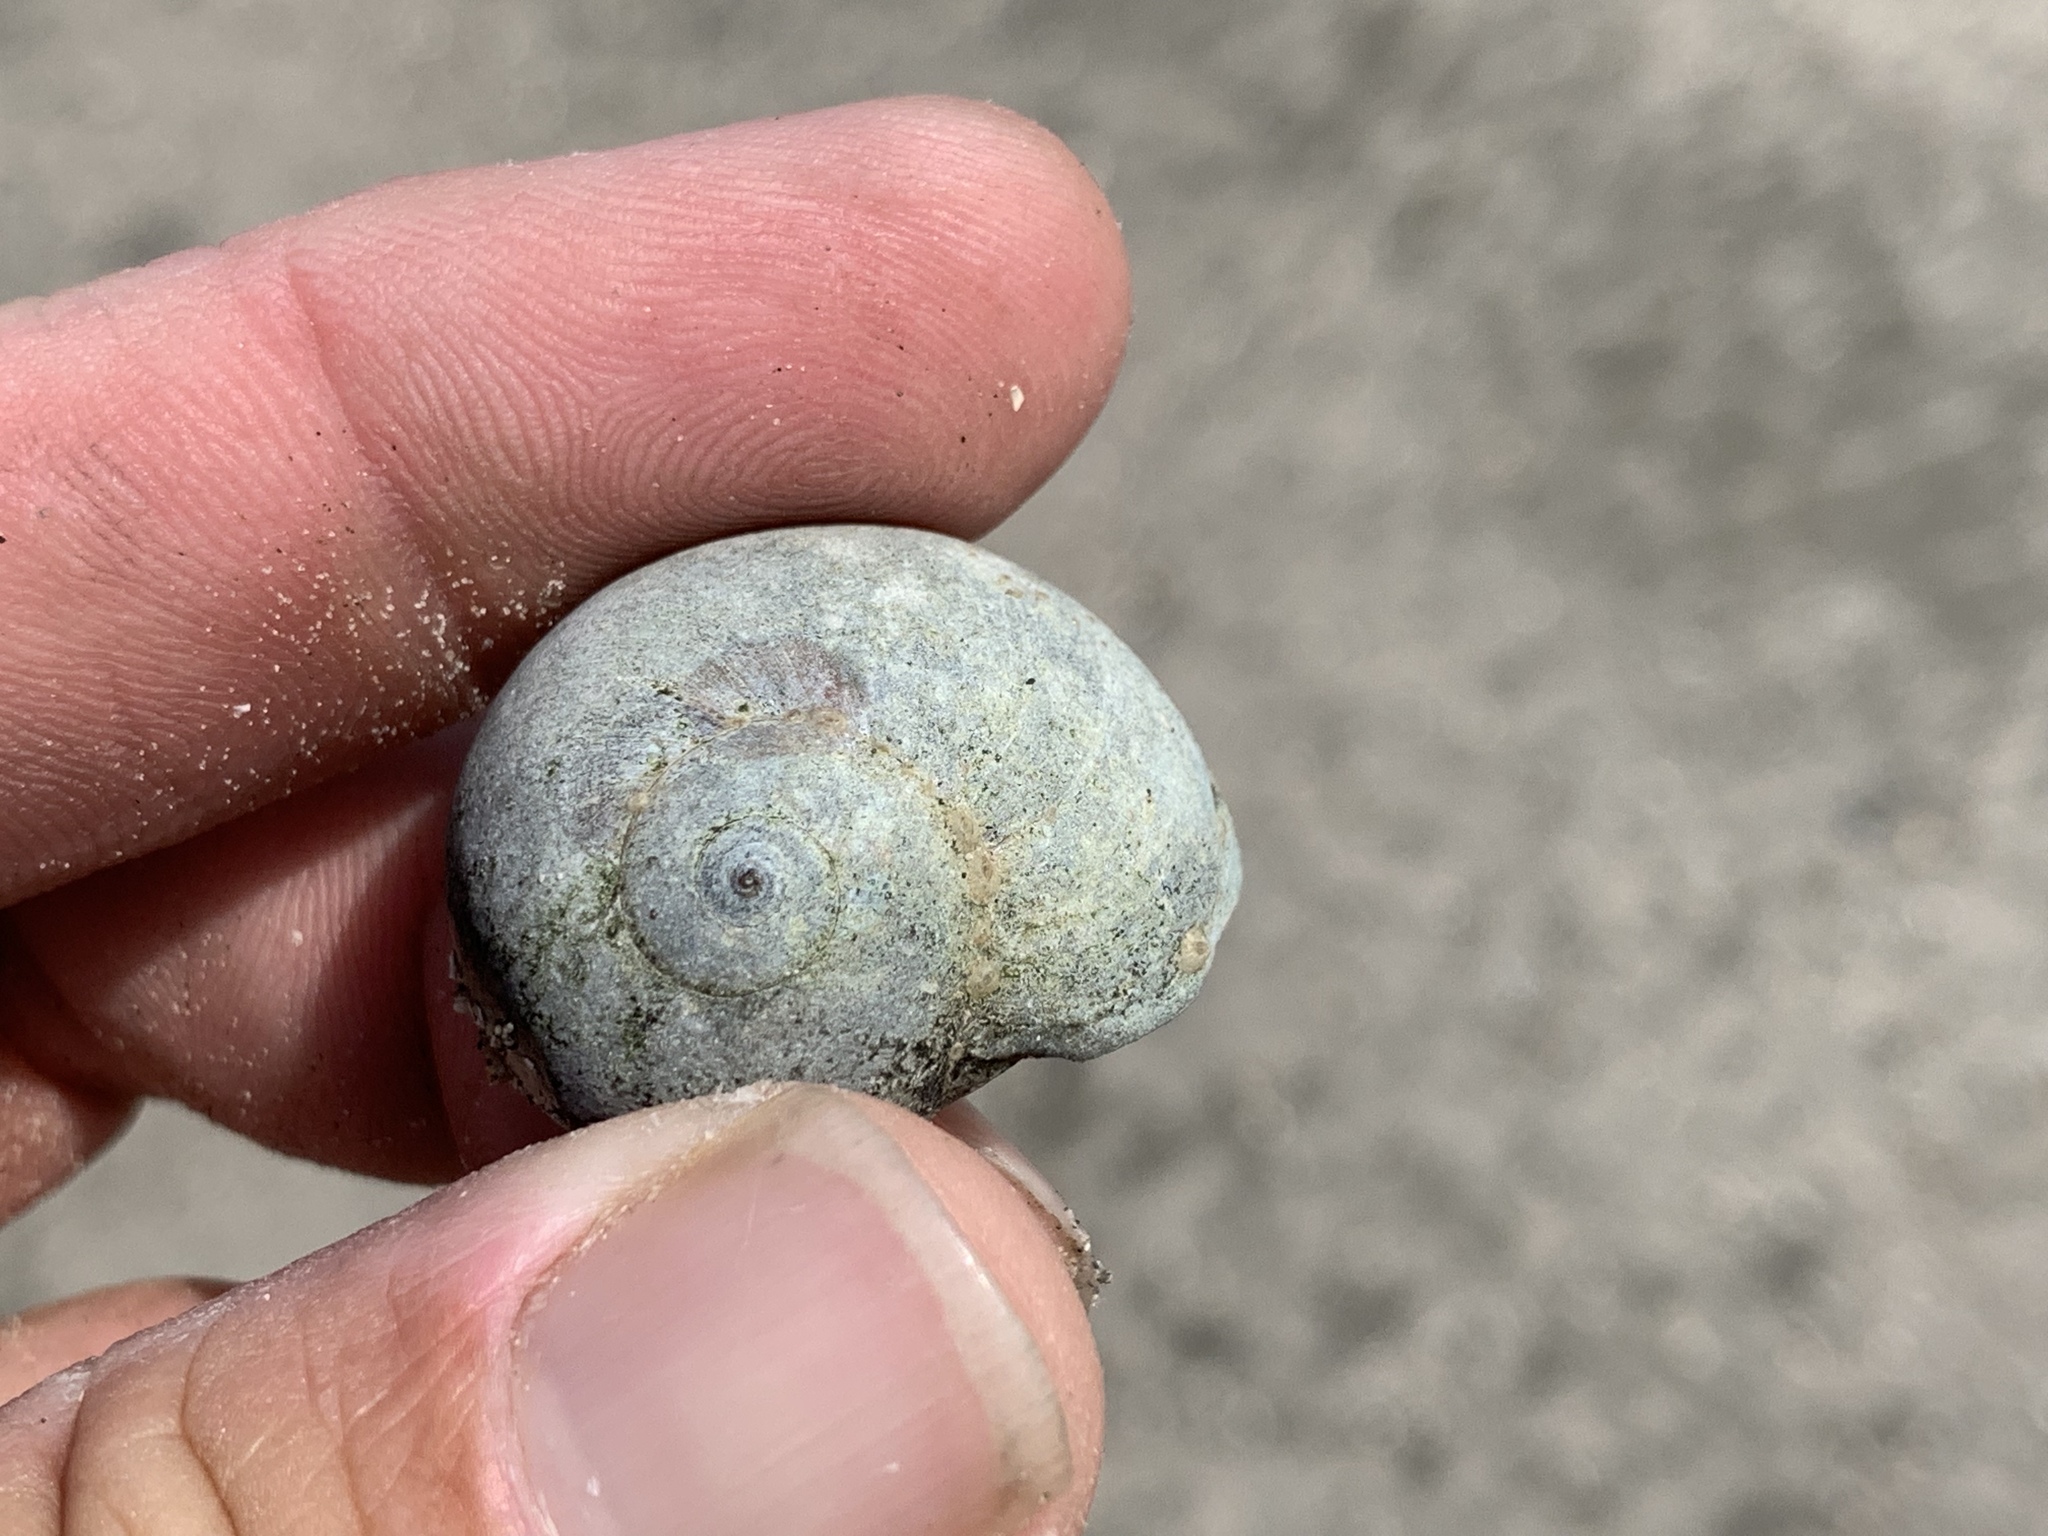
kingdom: Animalia
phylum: Mollusca
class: Gastropoda
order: Littorinimorpha
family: Naticidae
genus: Neverita
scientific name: Neverita delessertiana
